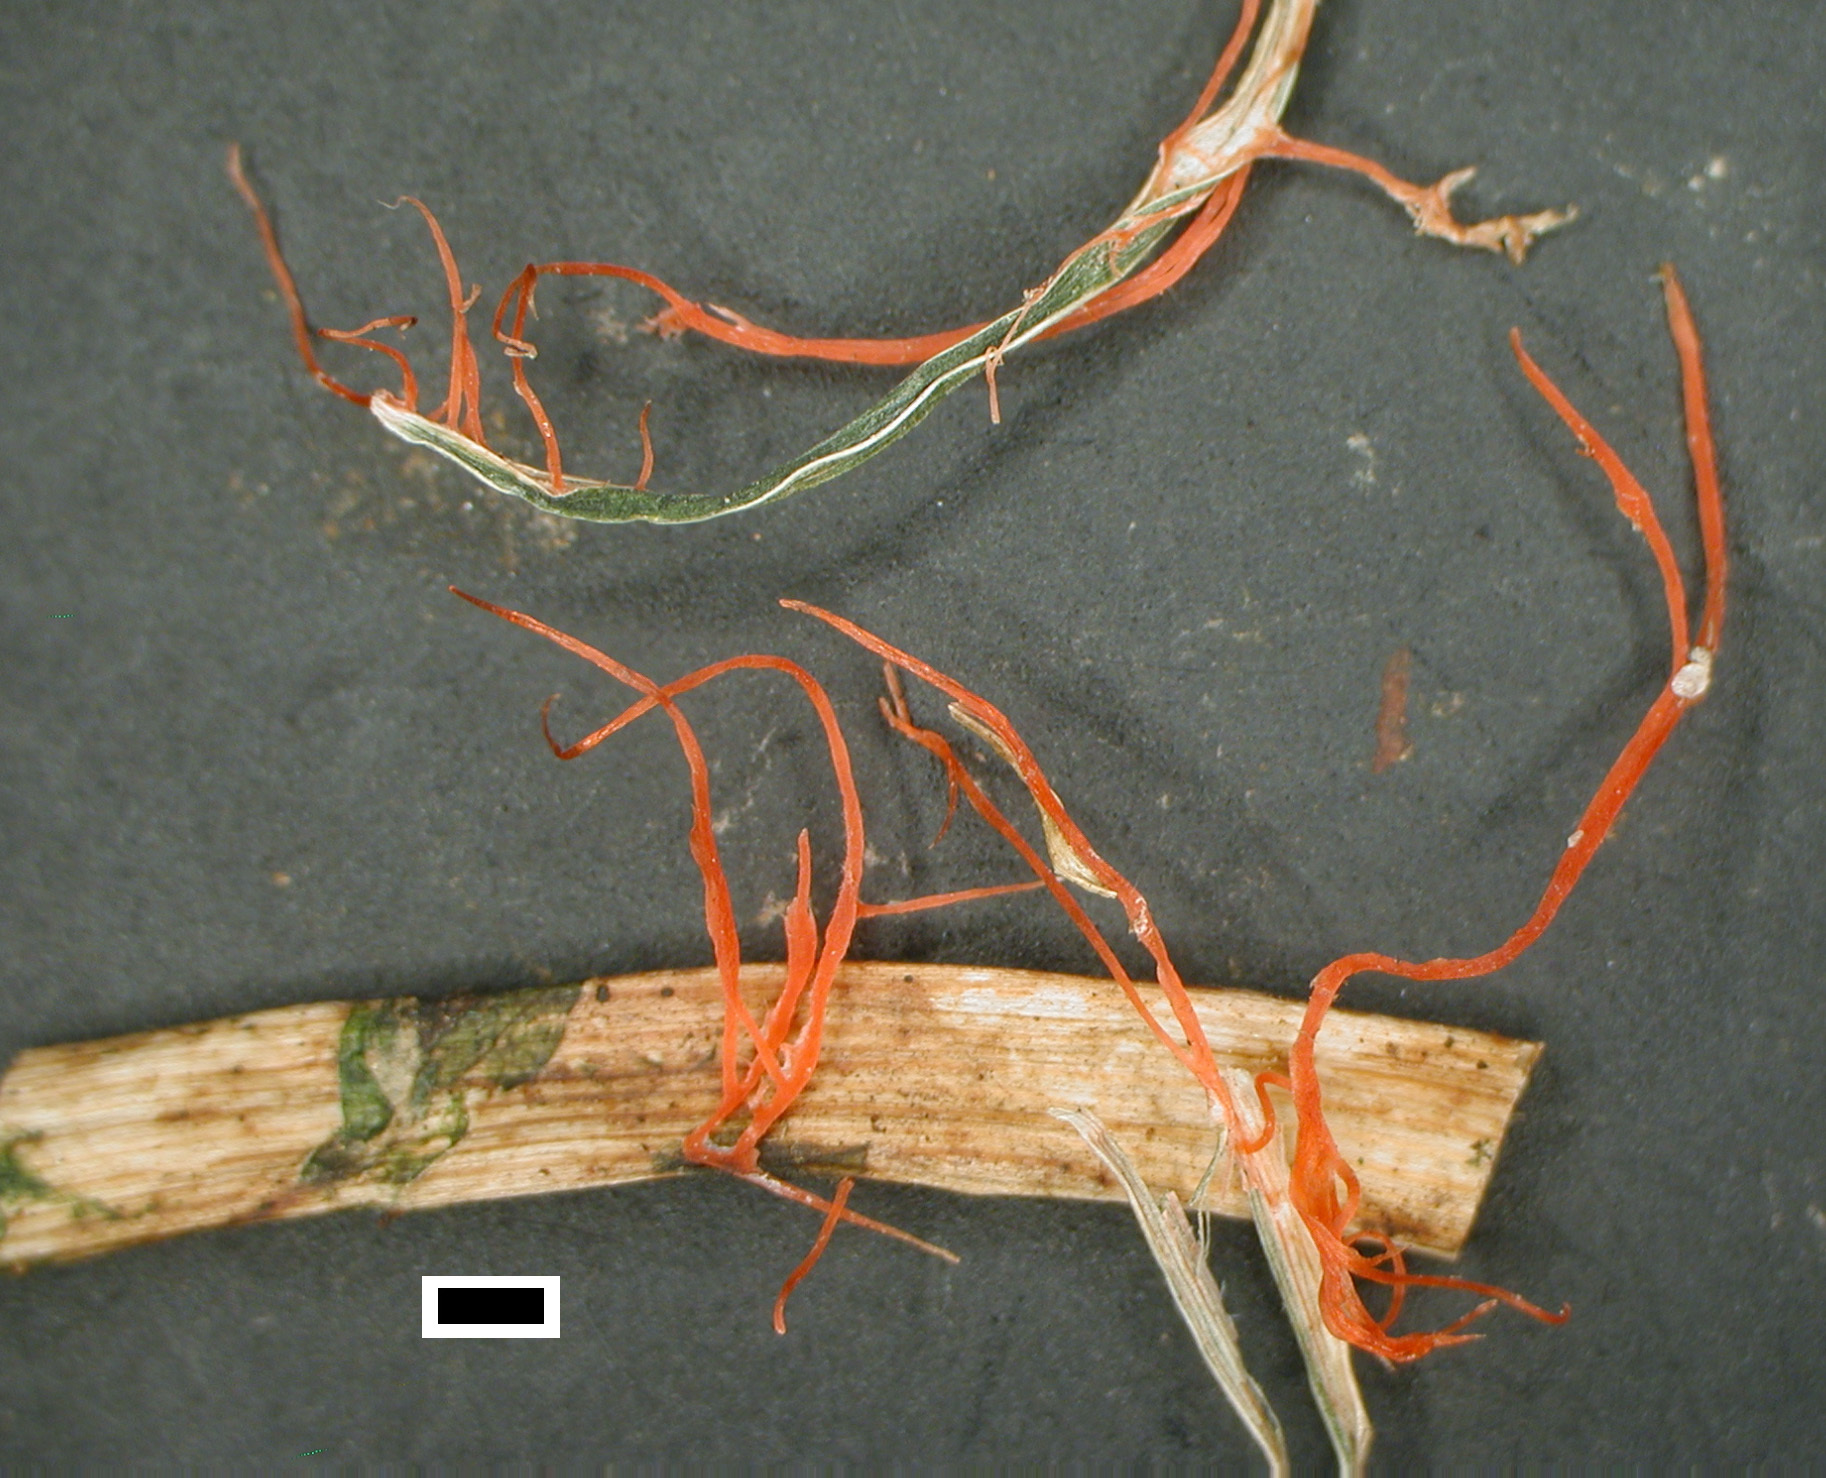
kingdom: Fungi
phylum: Basidiomycota
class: Agaricomycetes
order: Corticiales
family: Corticiaceae
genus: Laetisaria
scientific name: Laetisaria fuciformis
